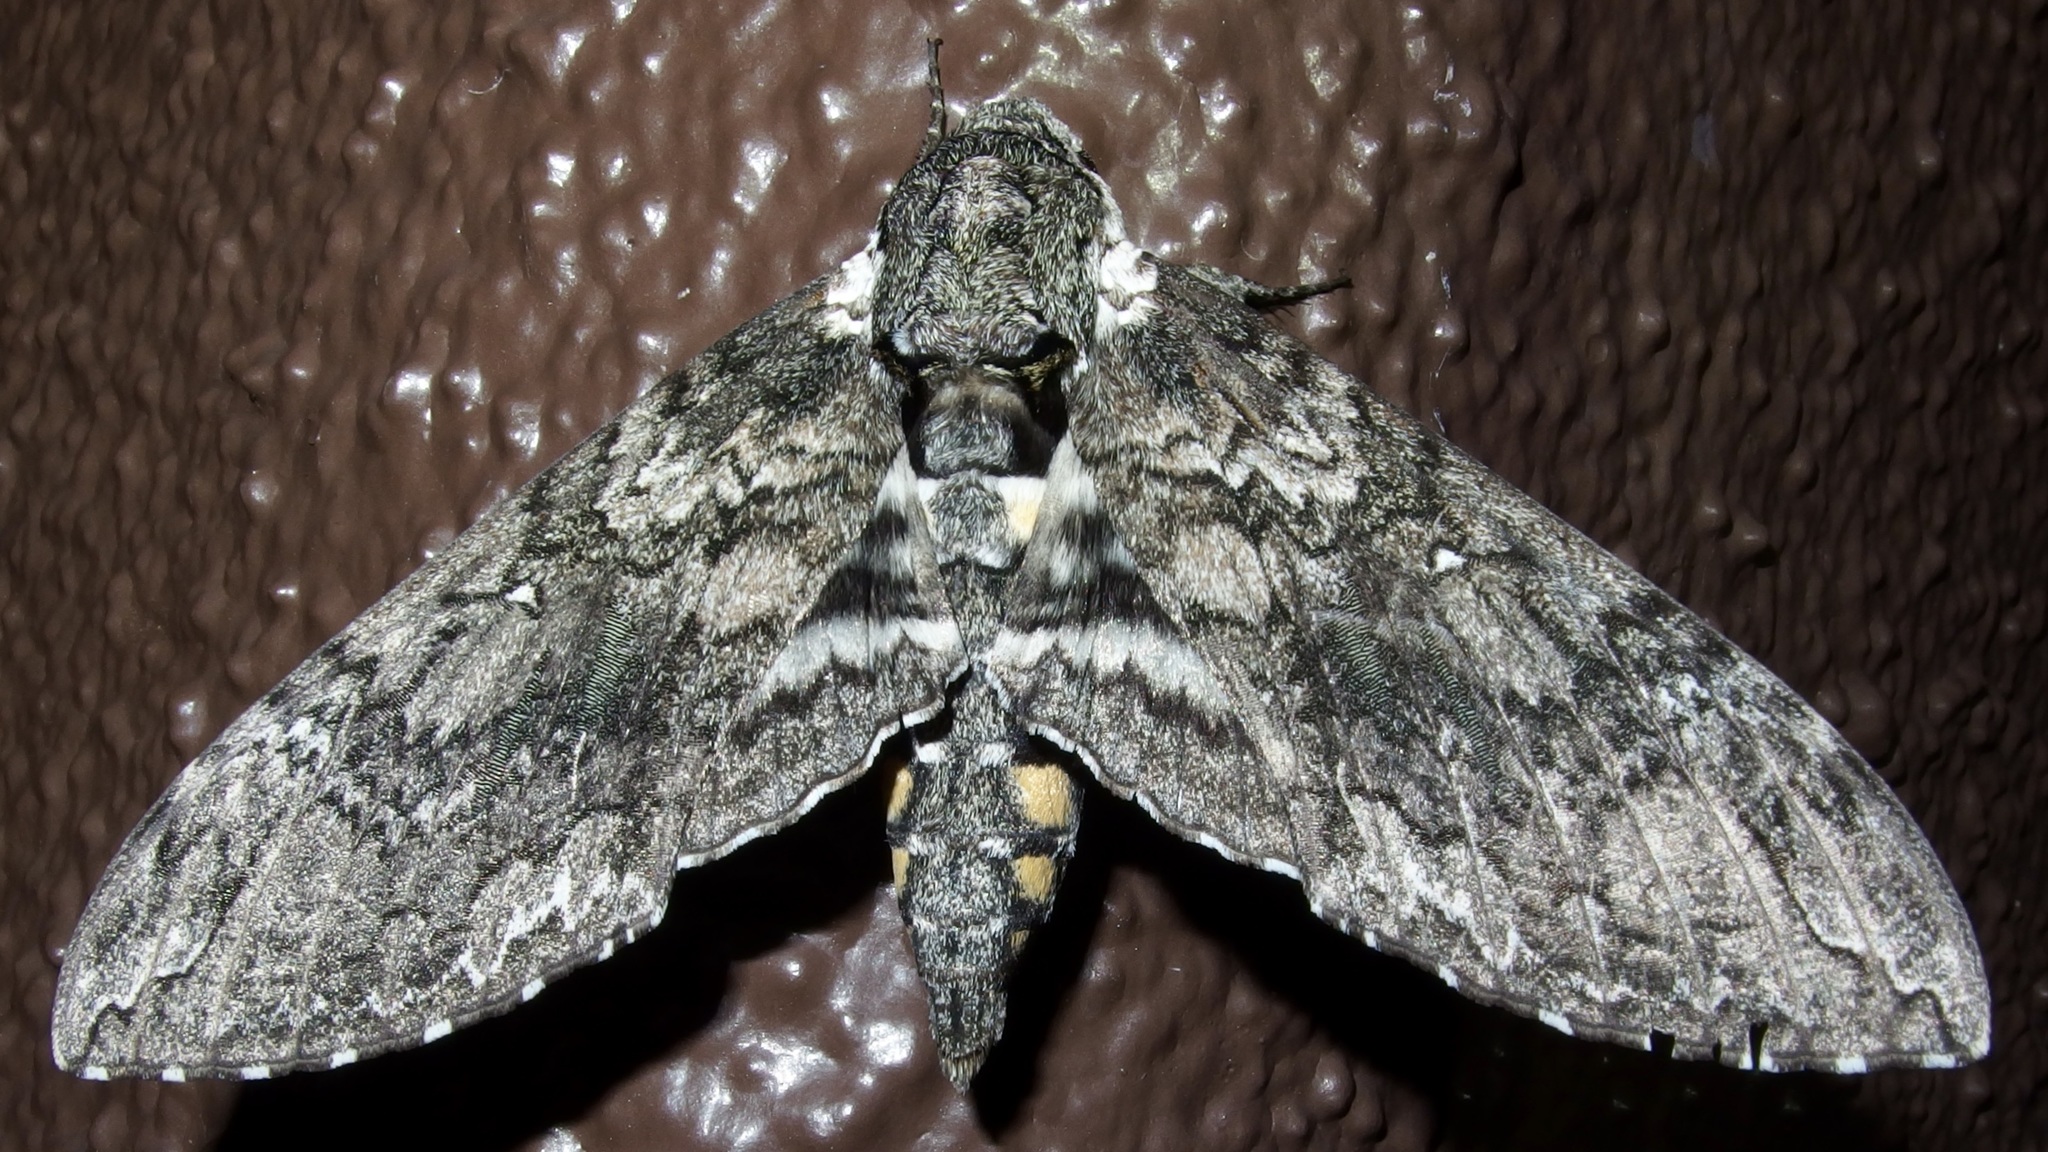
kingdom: Animalia
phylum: Arthropoda
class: Insecta
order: Lepidoptera
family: Sphingidae
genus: Manduca
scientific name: Manduca sexta
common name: Carolina sphinx
